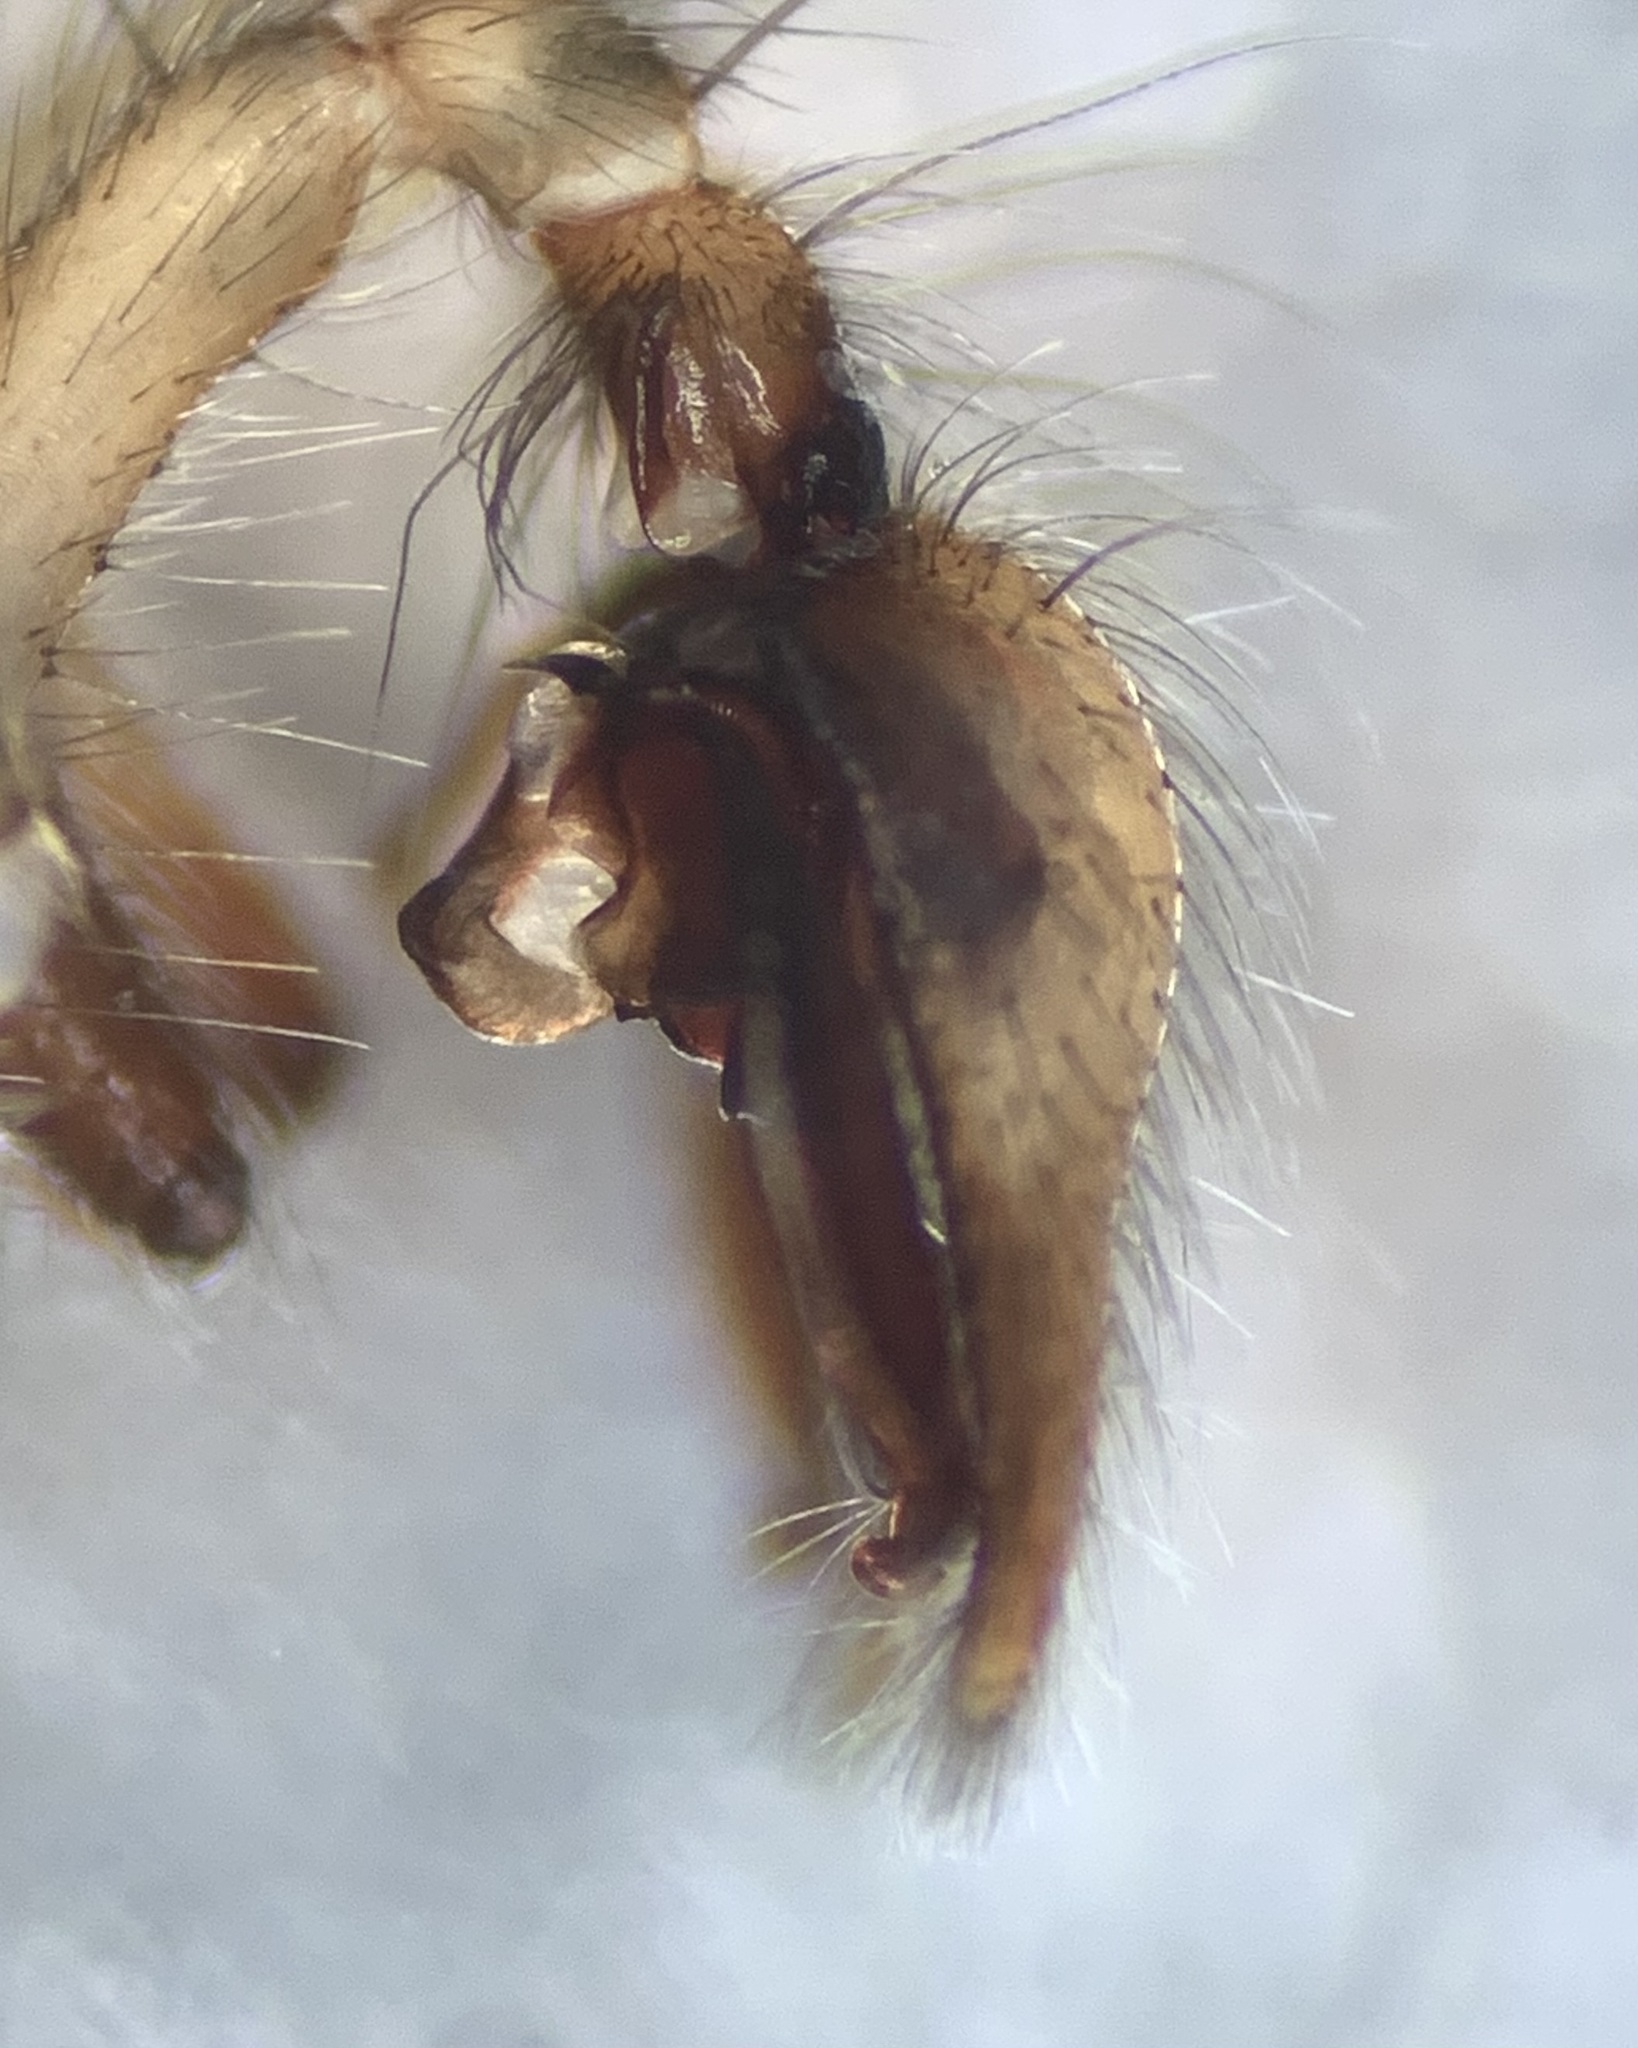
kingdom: Animalia
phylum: Arthropoda
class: Arachnida
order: Araneae
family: Agelenidae
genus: Tegenaria
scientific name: Tegenaria silvestris
